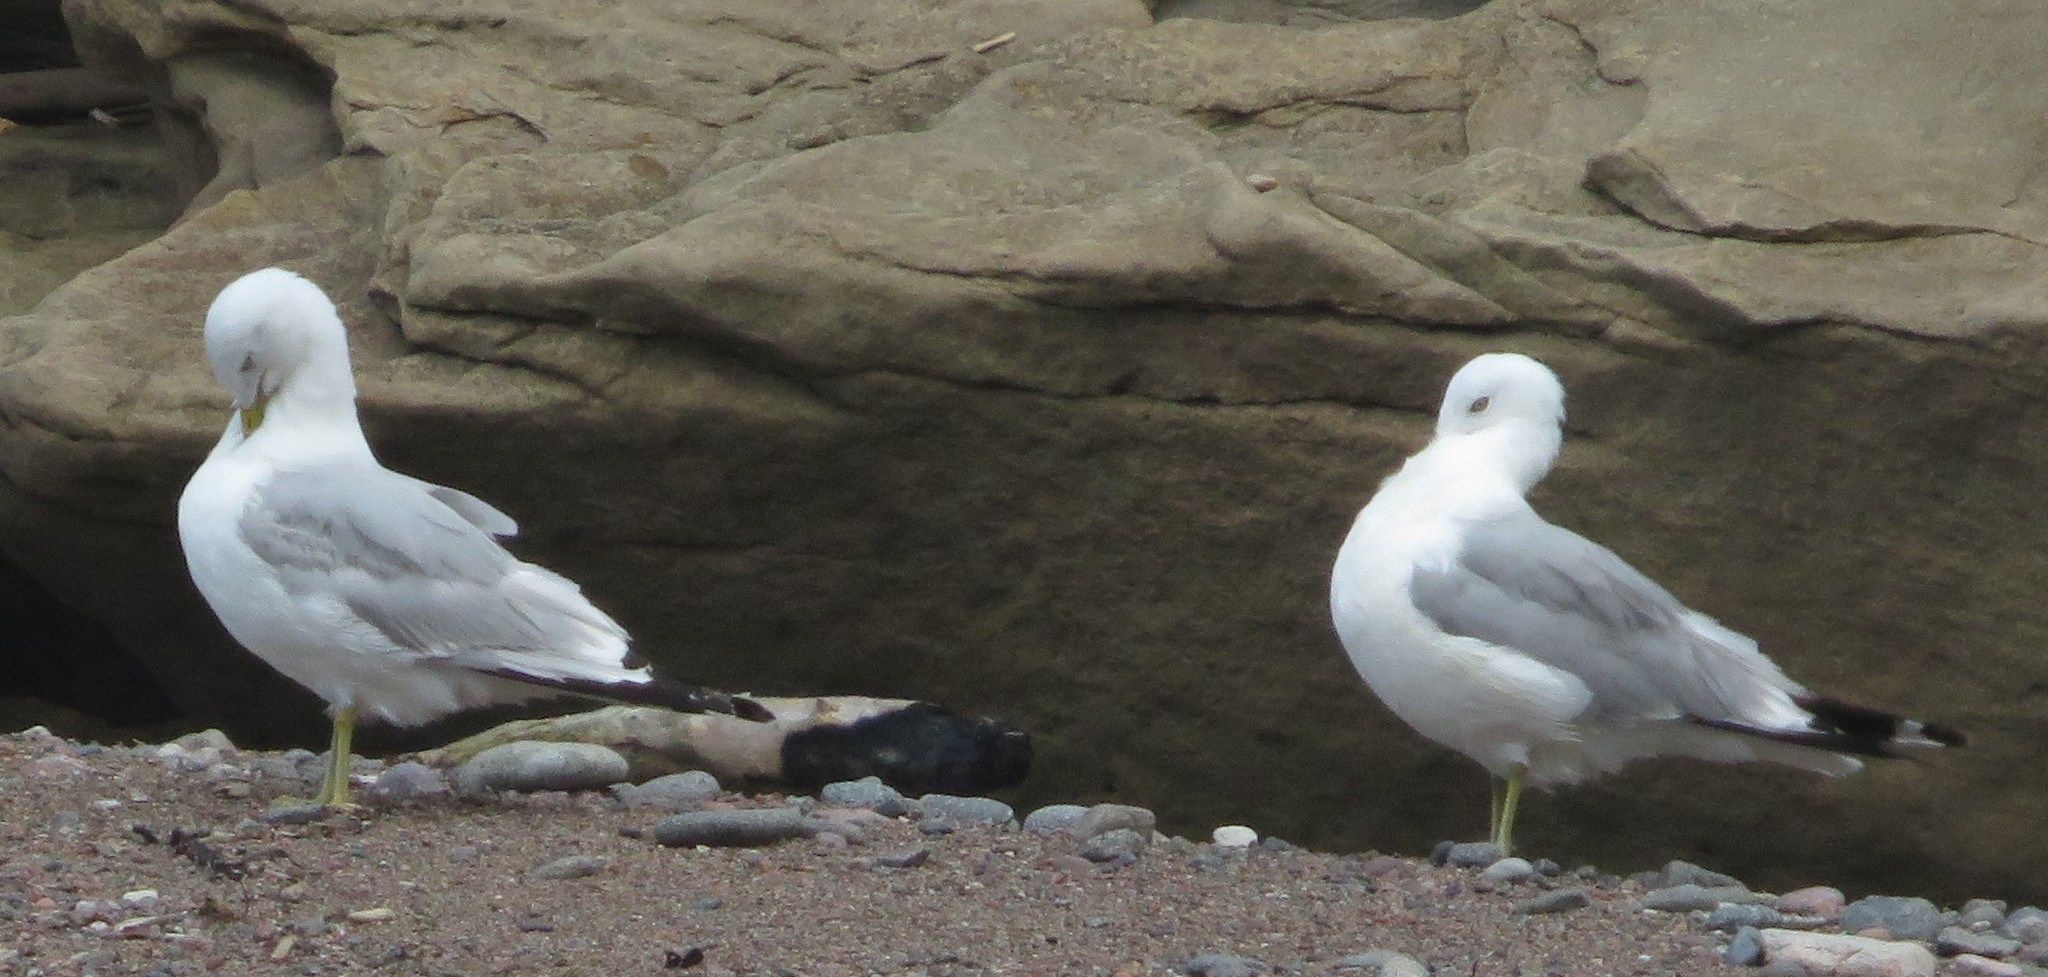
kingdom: Animalia
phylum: Chordata
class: Aves
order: Charadriiformes
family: Laridae
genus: Larus
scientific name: Larus delawarensis
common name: Ring-billed gull
